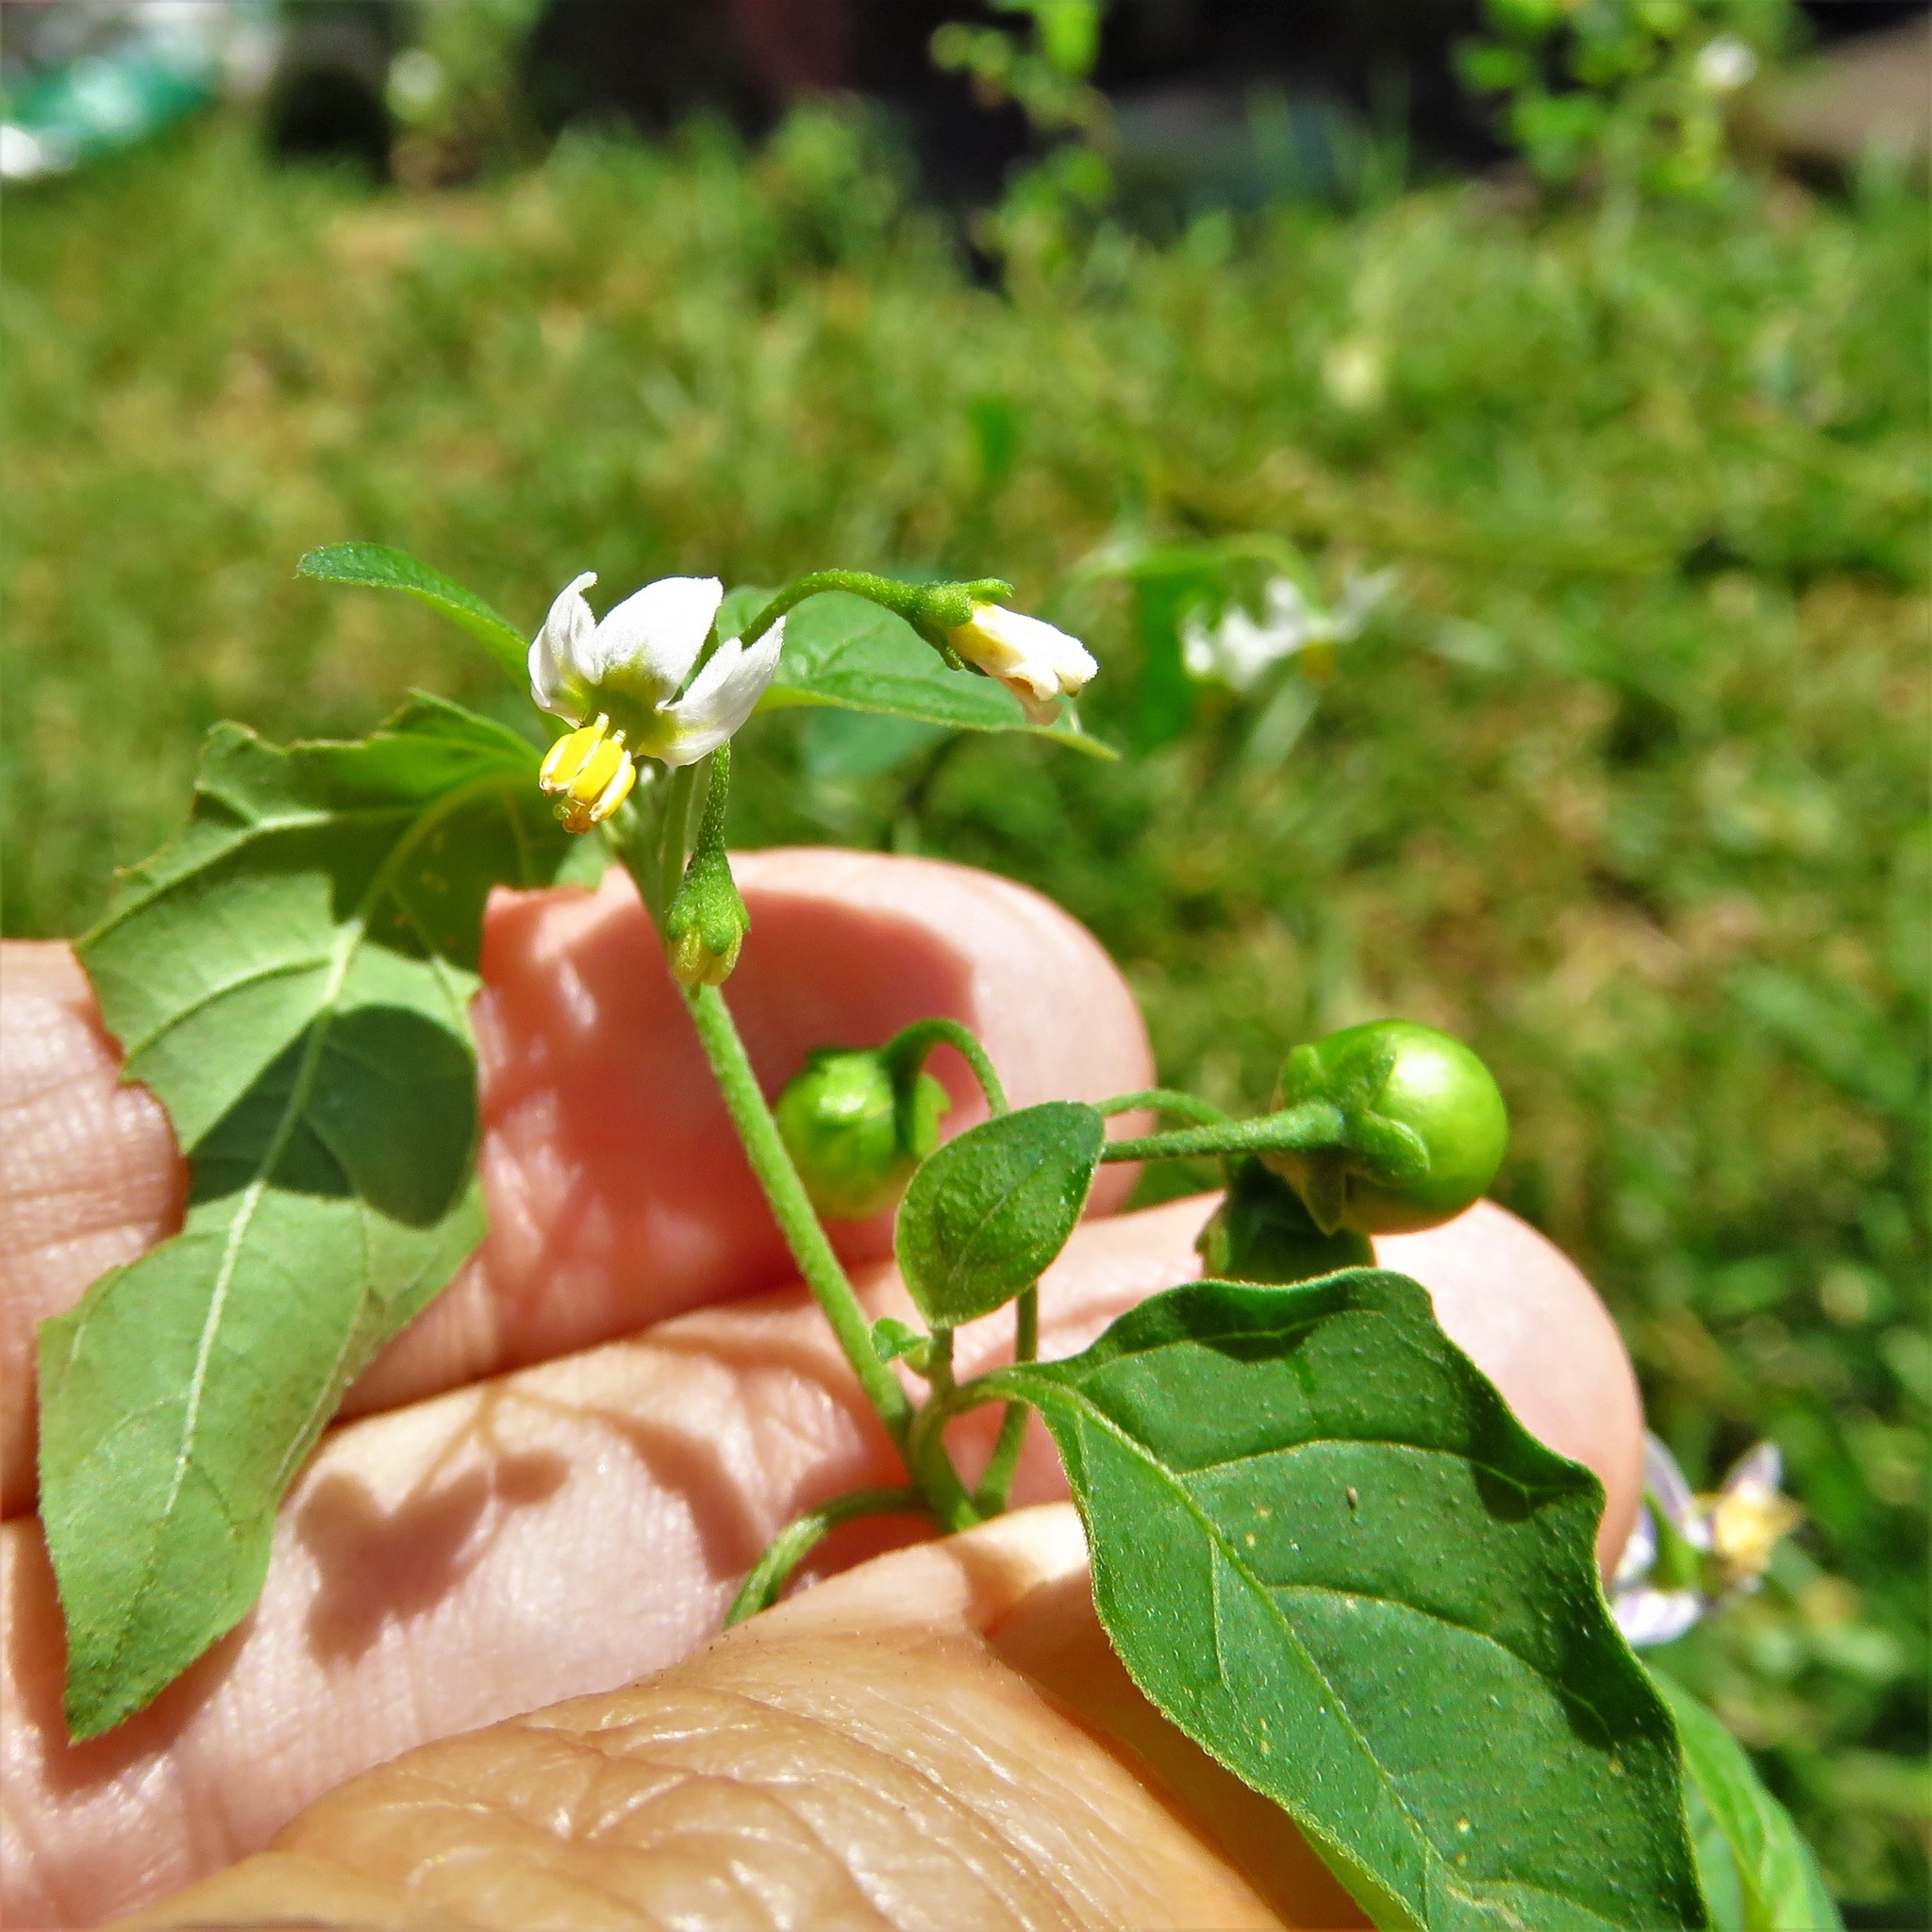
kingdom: Plantae
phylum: Tracheophyta
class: Magnoliopsida
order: Solanales
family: Solanaceae
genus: Solanum
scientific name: Solanum emulans
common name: Eastern black nightshade
